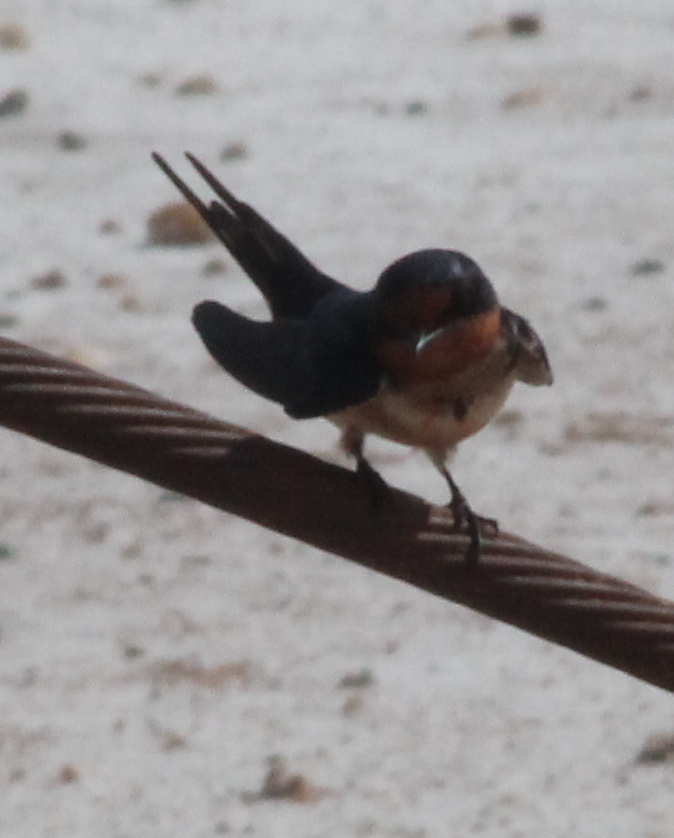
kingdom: Animalia
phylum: Chordata
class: Aves
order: Passeriformes
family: Hirundinidae
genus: Hirundo
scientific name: Hirundo rustica
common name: Barn swallow
